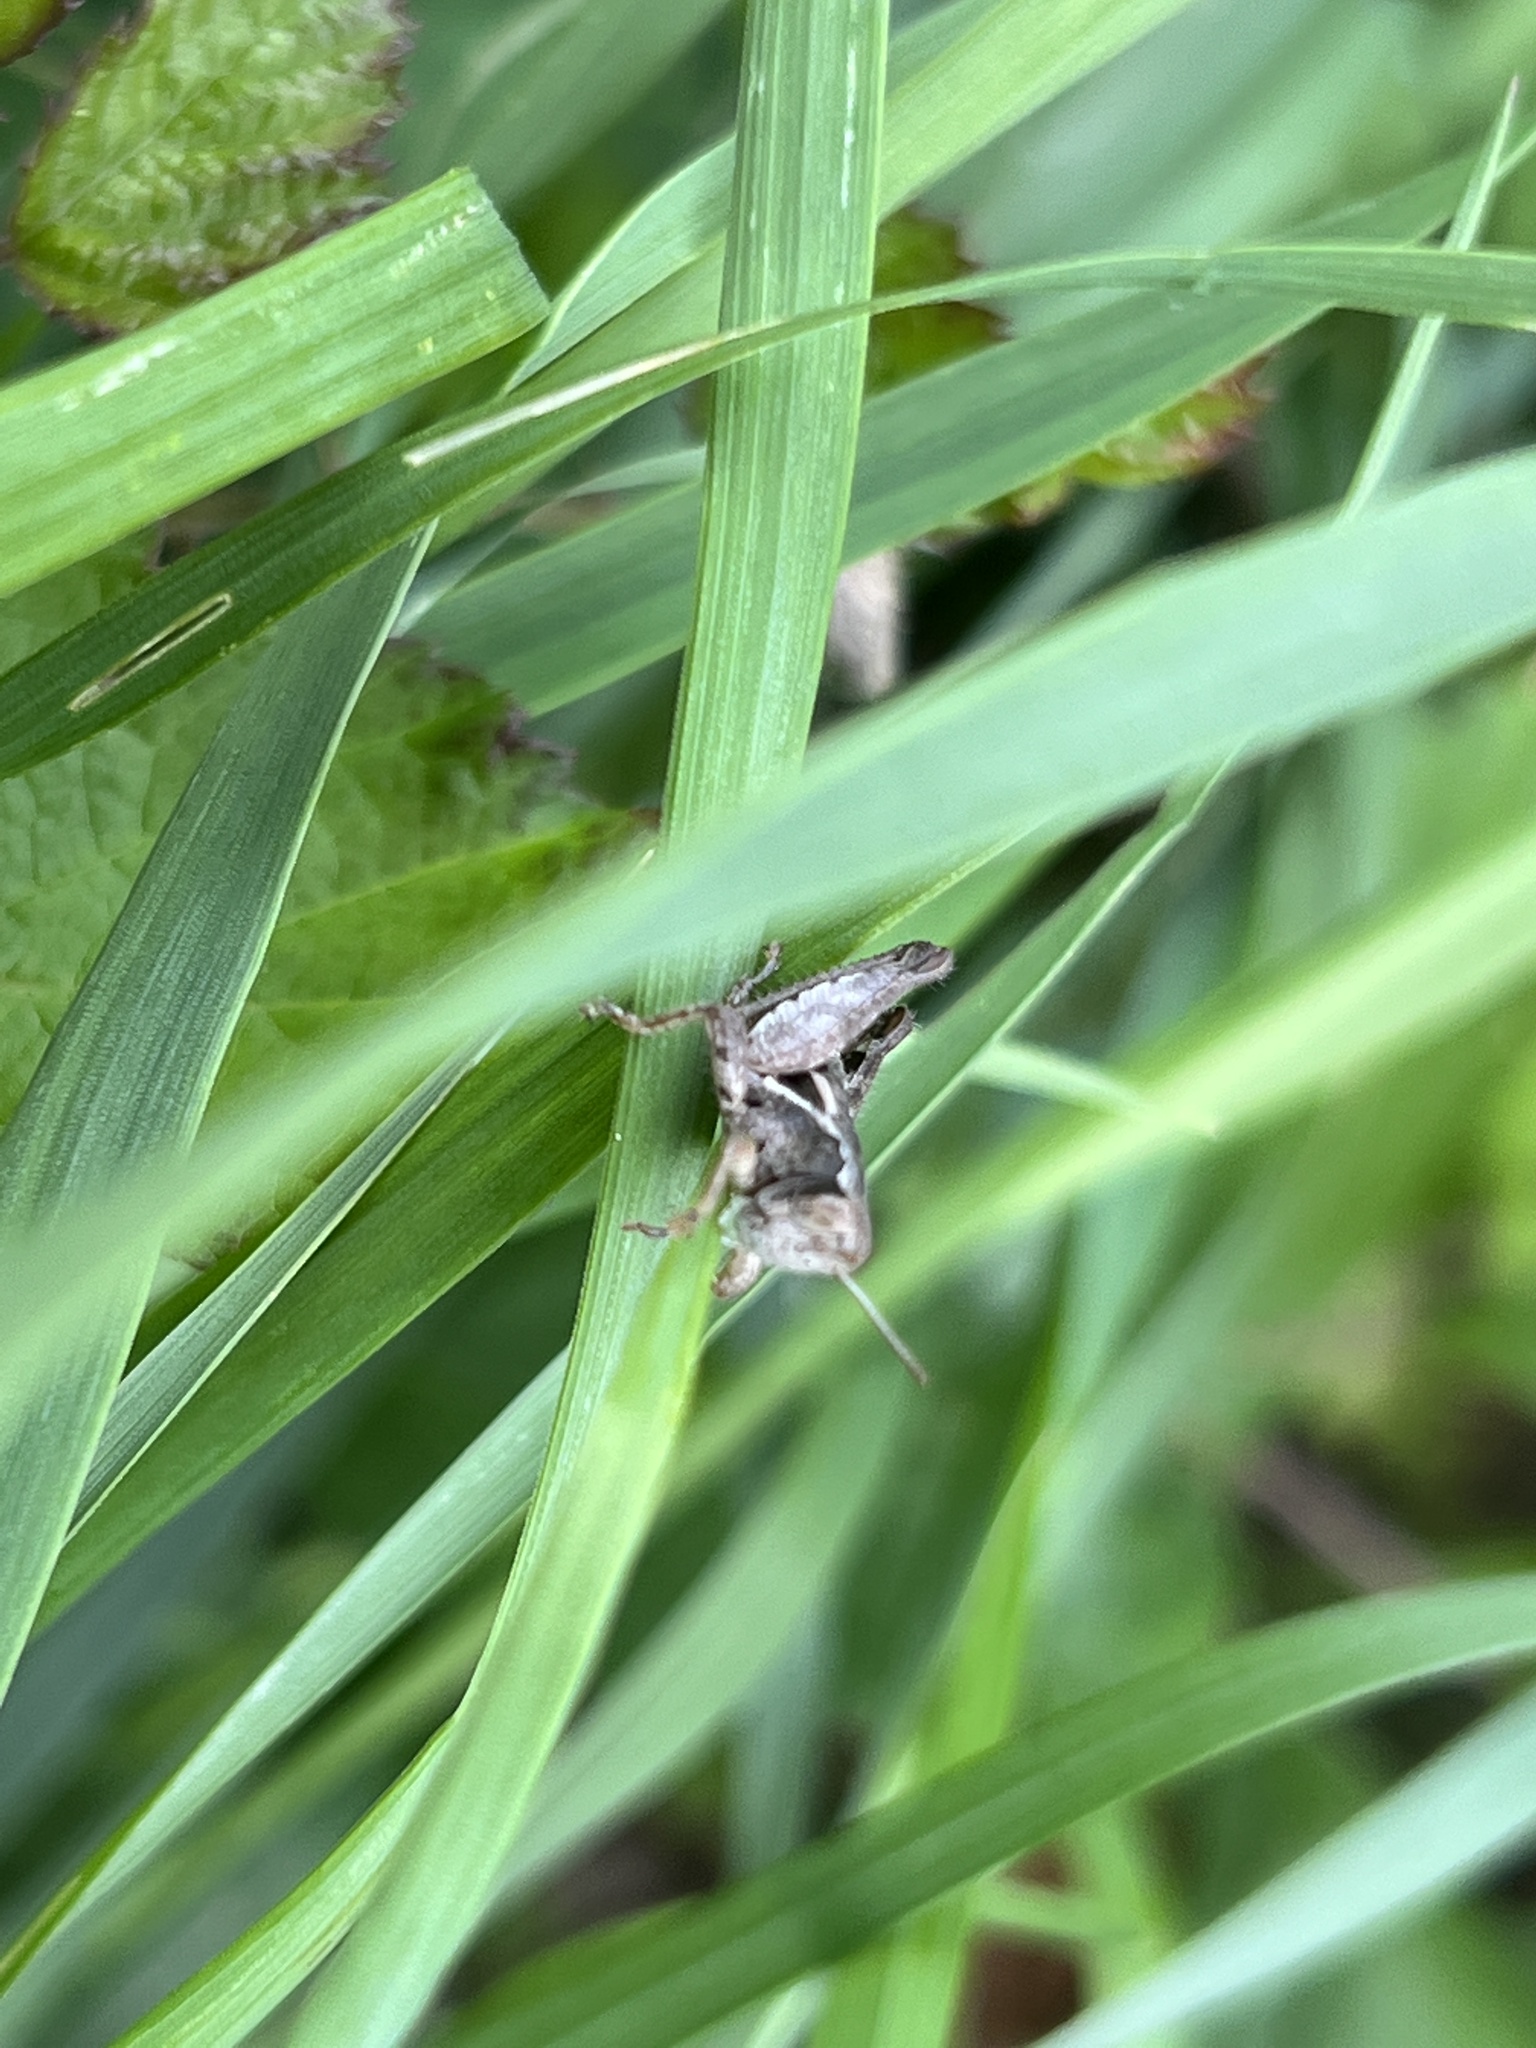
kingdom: Animalia
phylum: Arthropoda
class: Insecta
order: Orthoptera
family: Acrididae
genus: Pezotettix
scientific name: Pezotettix giornae
